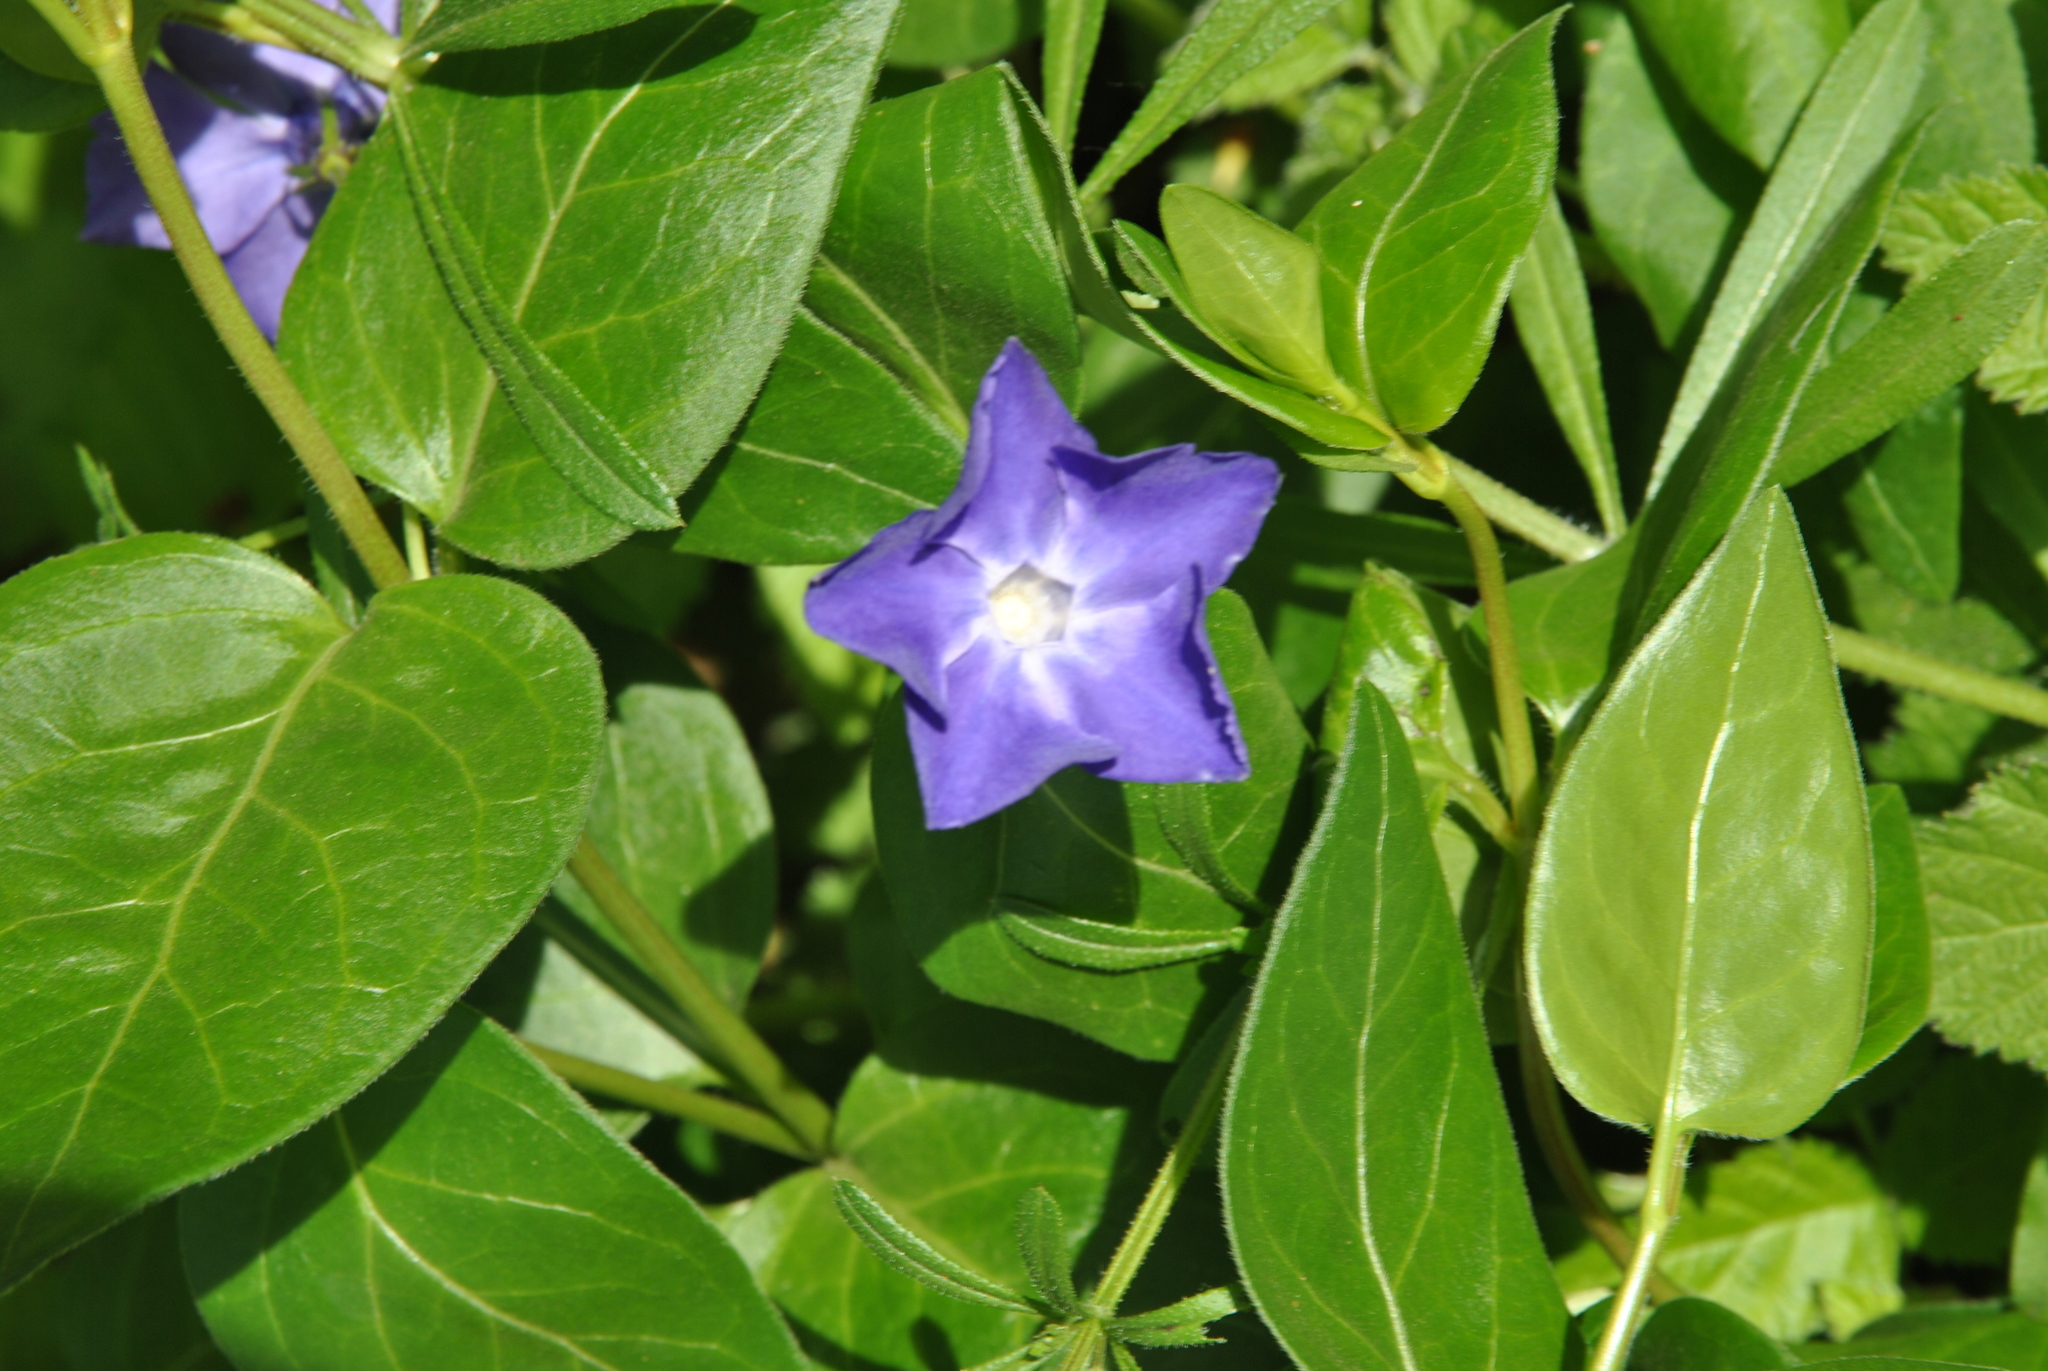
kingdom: Plantae
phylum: Tracheophyta
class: Magnoliopsida
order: Gentianales
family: Apocynaceae
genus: Vinca
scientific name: Vinca major
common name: Greater periwinkle
